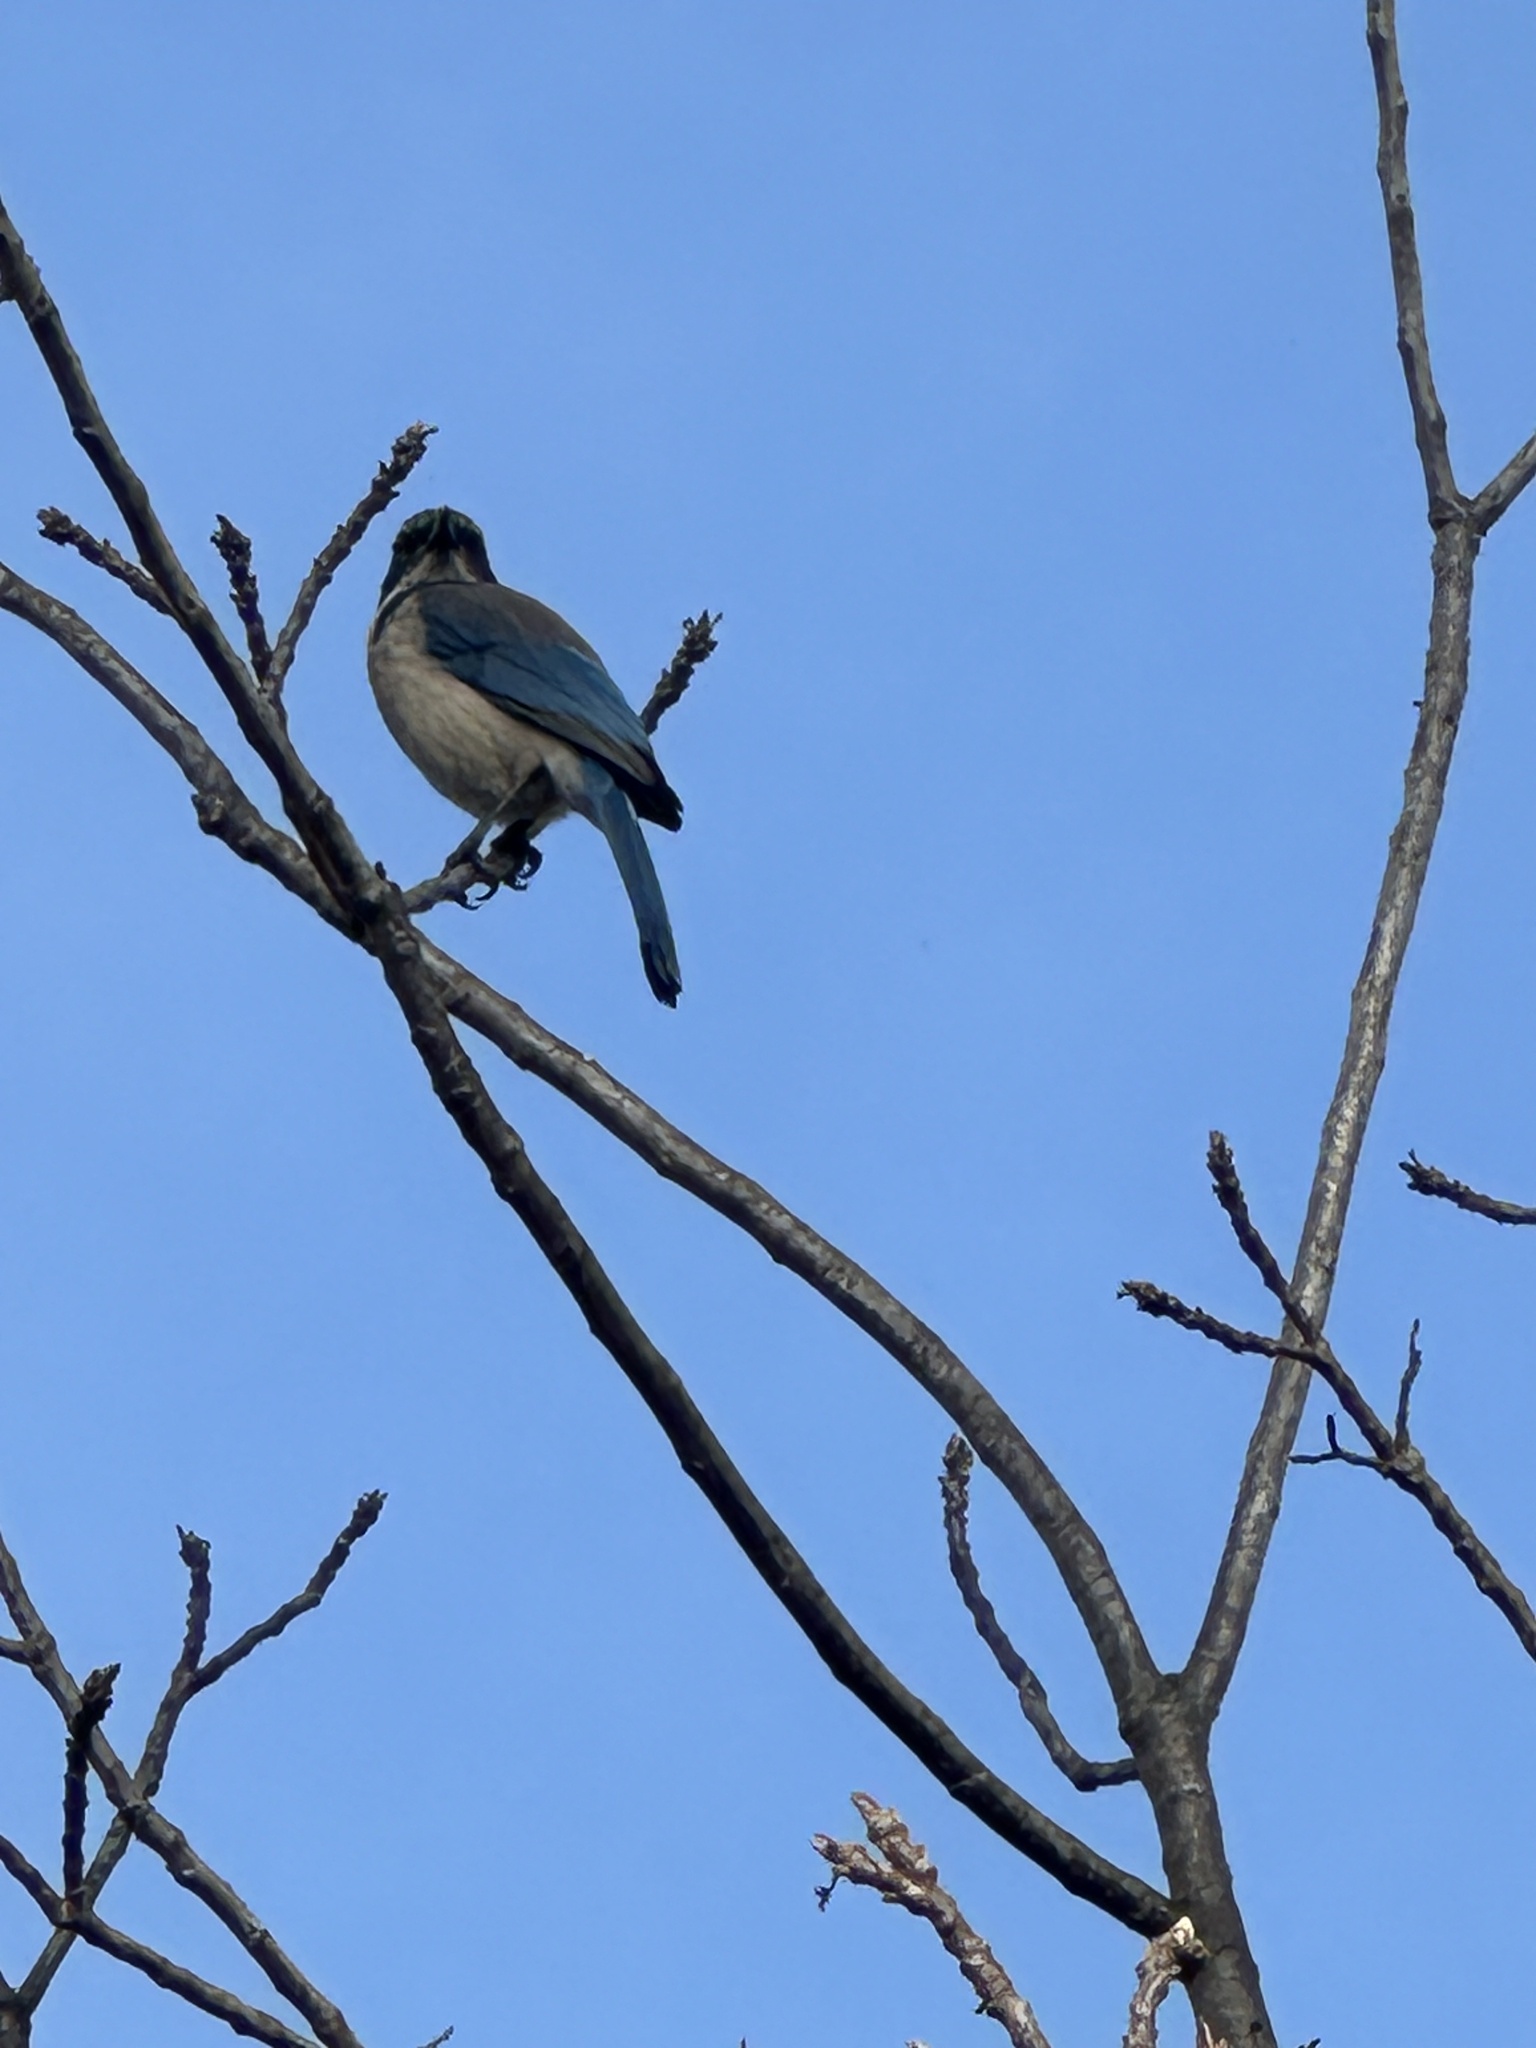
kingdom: Animalia
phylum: Chordata
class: Aves
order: Passeriformes
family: Corvidae
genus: Aphelocoma
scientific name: Aphelocoma californica
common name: California scrub-jay
